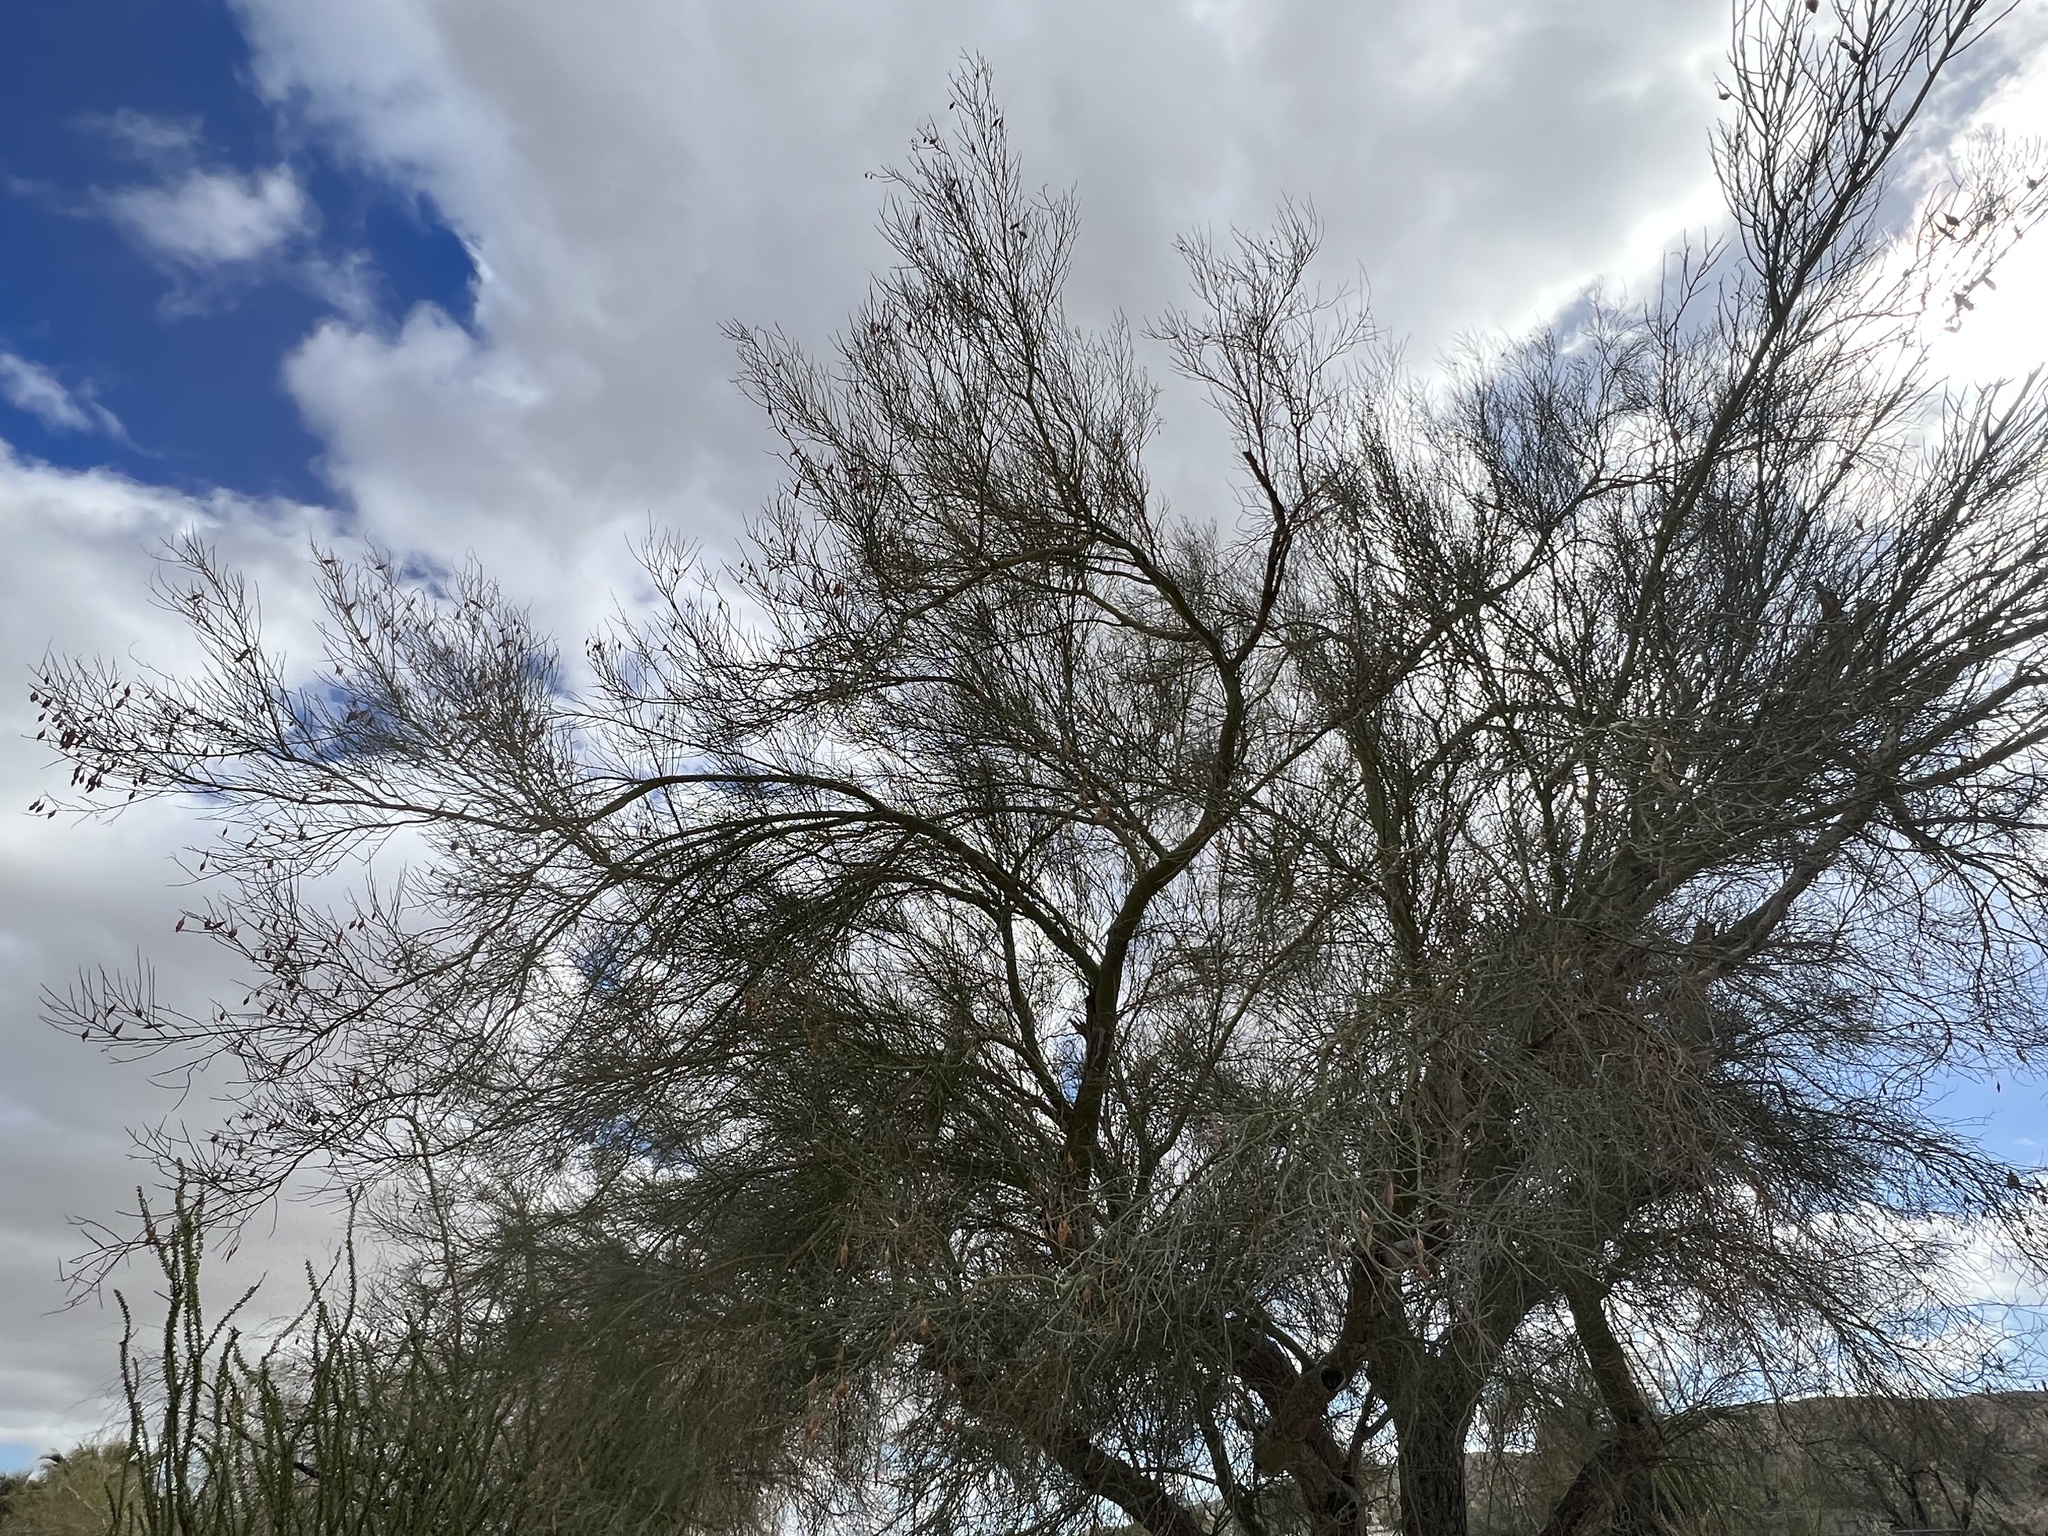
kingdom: Plantae
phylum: Tracheophyta
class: Magnoliopsida
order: Fabales
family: Fabaceae
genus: Parkinsonia
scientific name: Parkinsonia florida
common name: Blue paloverde
